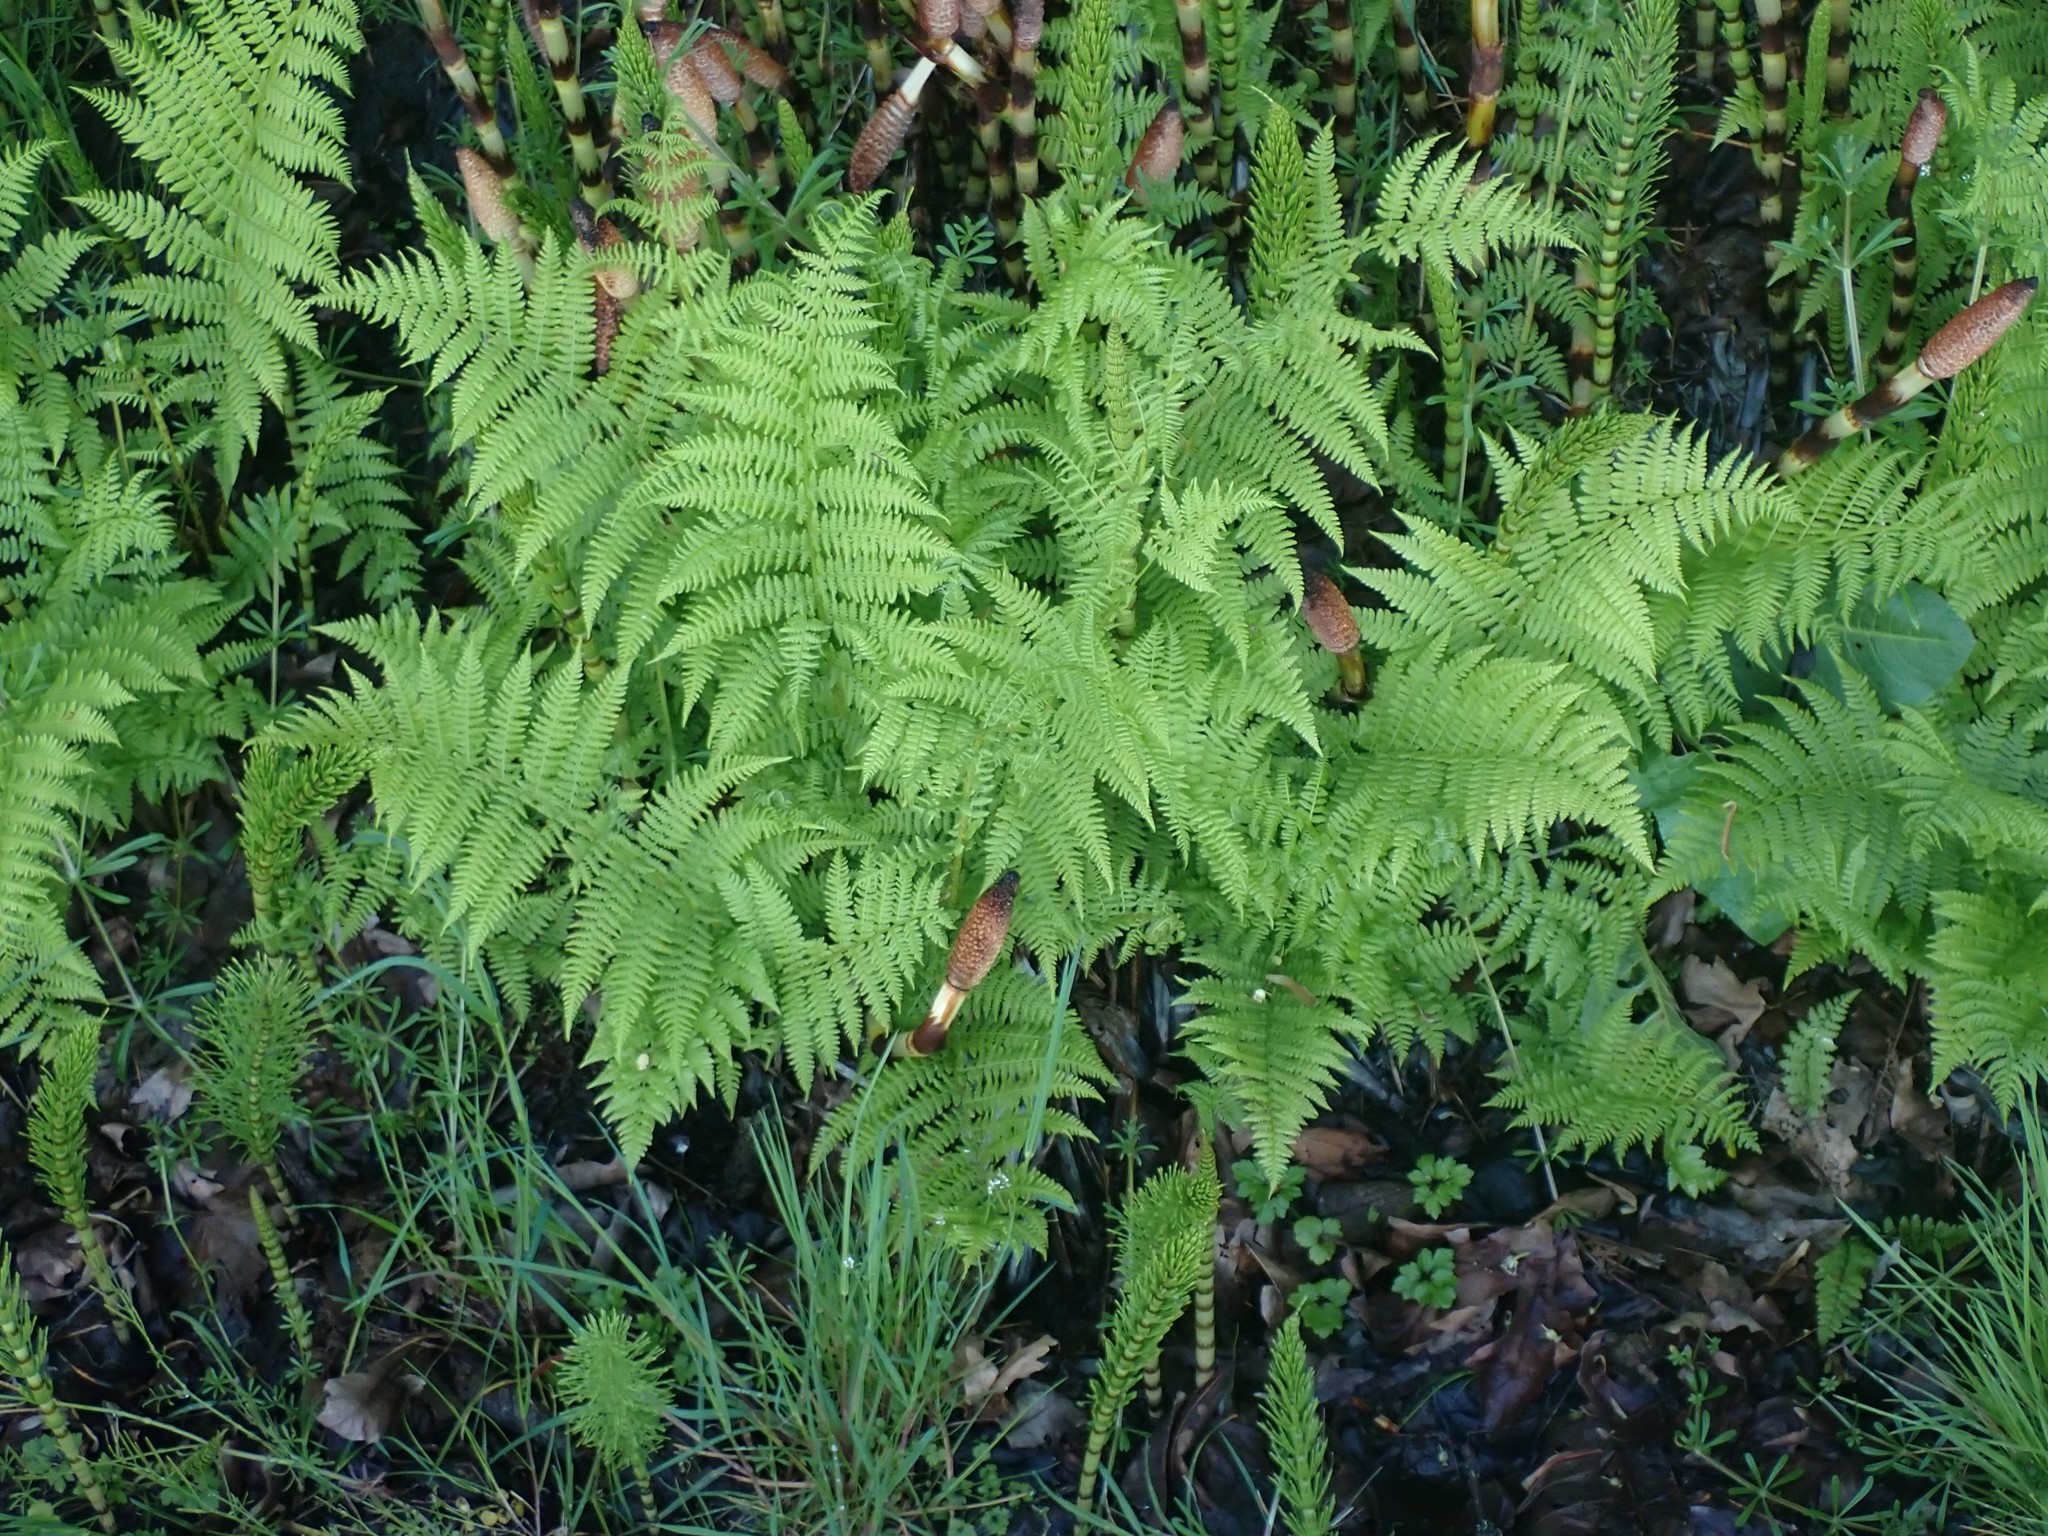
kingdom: Plantae
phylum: Tracheophyta
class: Polypodiopsida
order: Polypodiales
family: Athyriaceae
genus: Athyrium
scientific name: Athyrium cyclosorum
